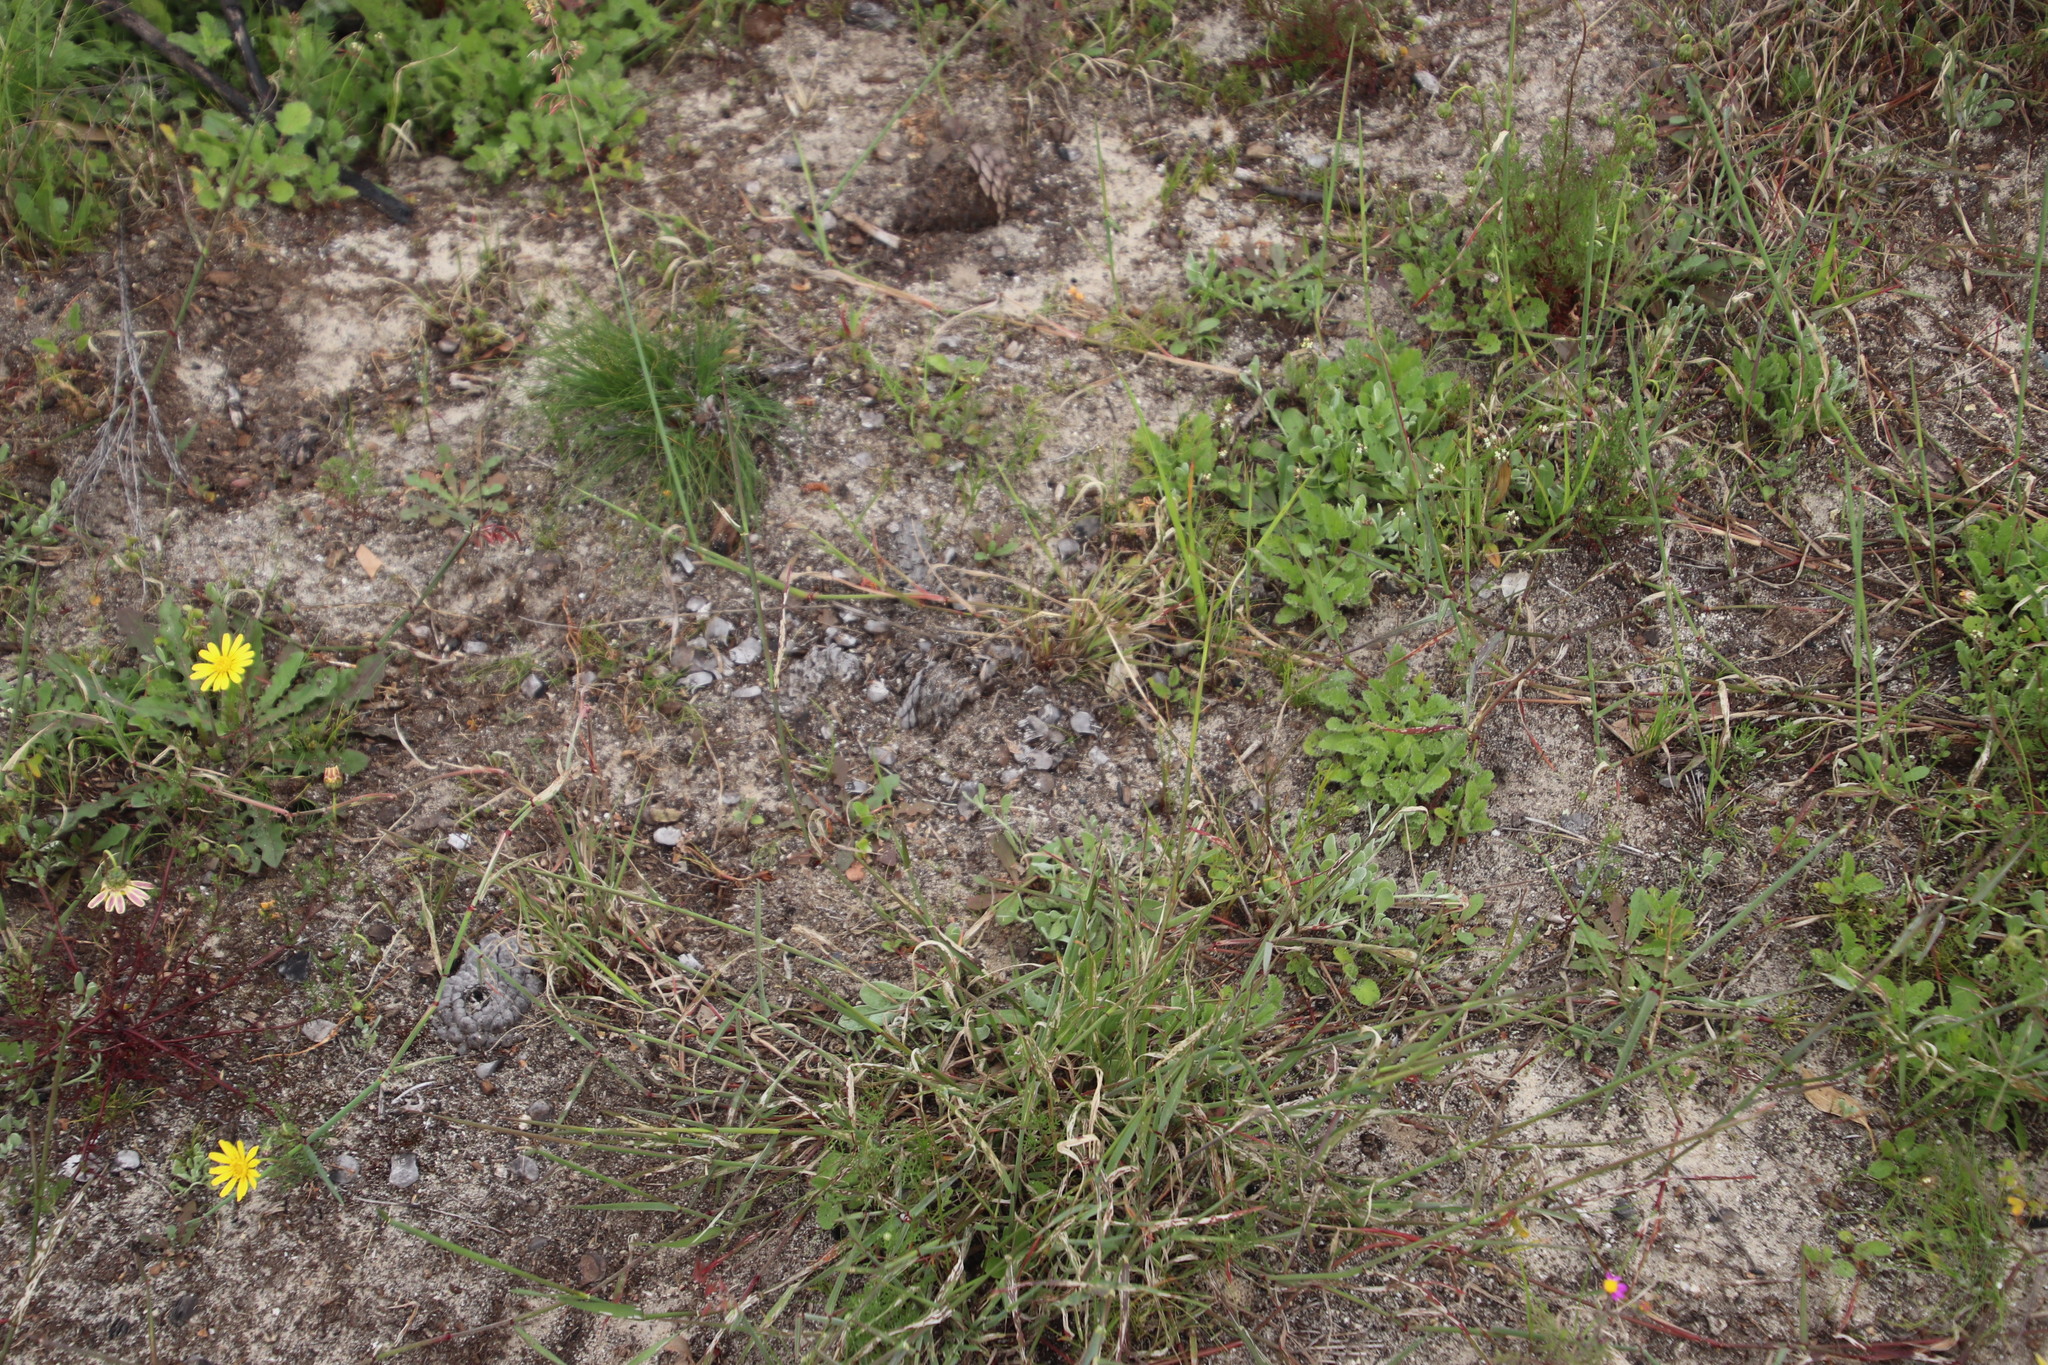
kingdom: Plantae
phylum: Tracheophyta
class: Liliopsida
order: Poales
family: Poaceae
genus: Ehrharta
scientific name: Ehrharta calycina
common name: Perennial veldtgrass
